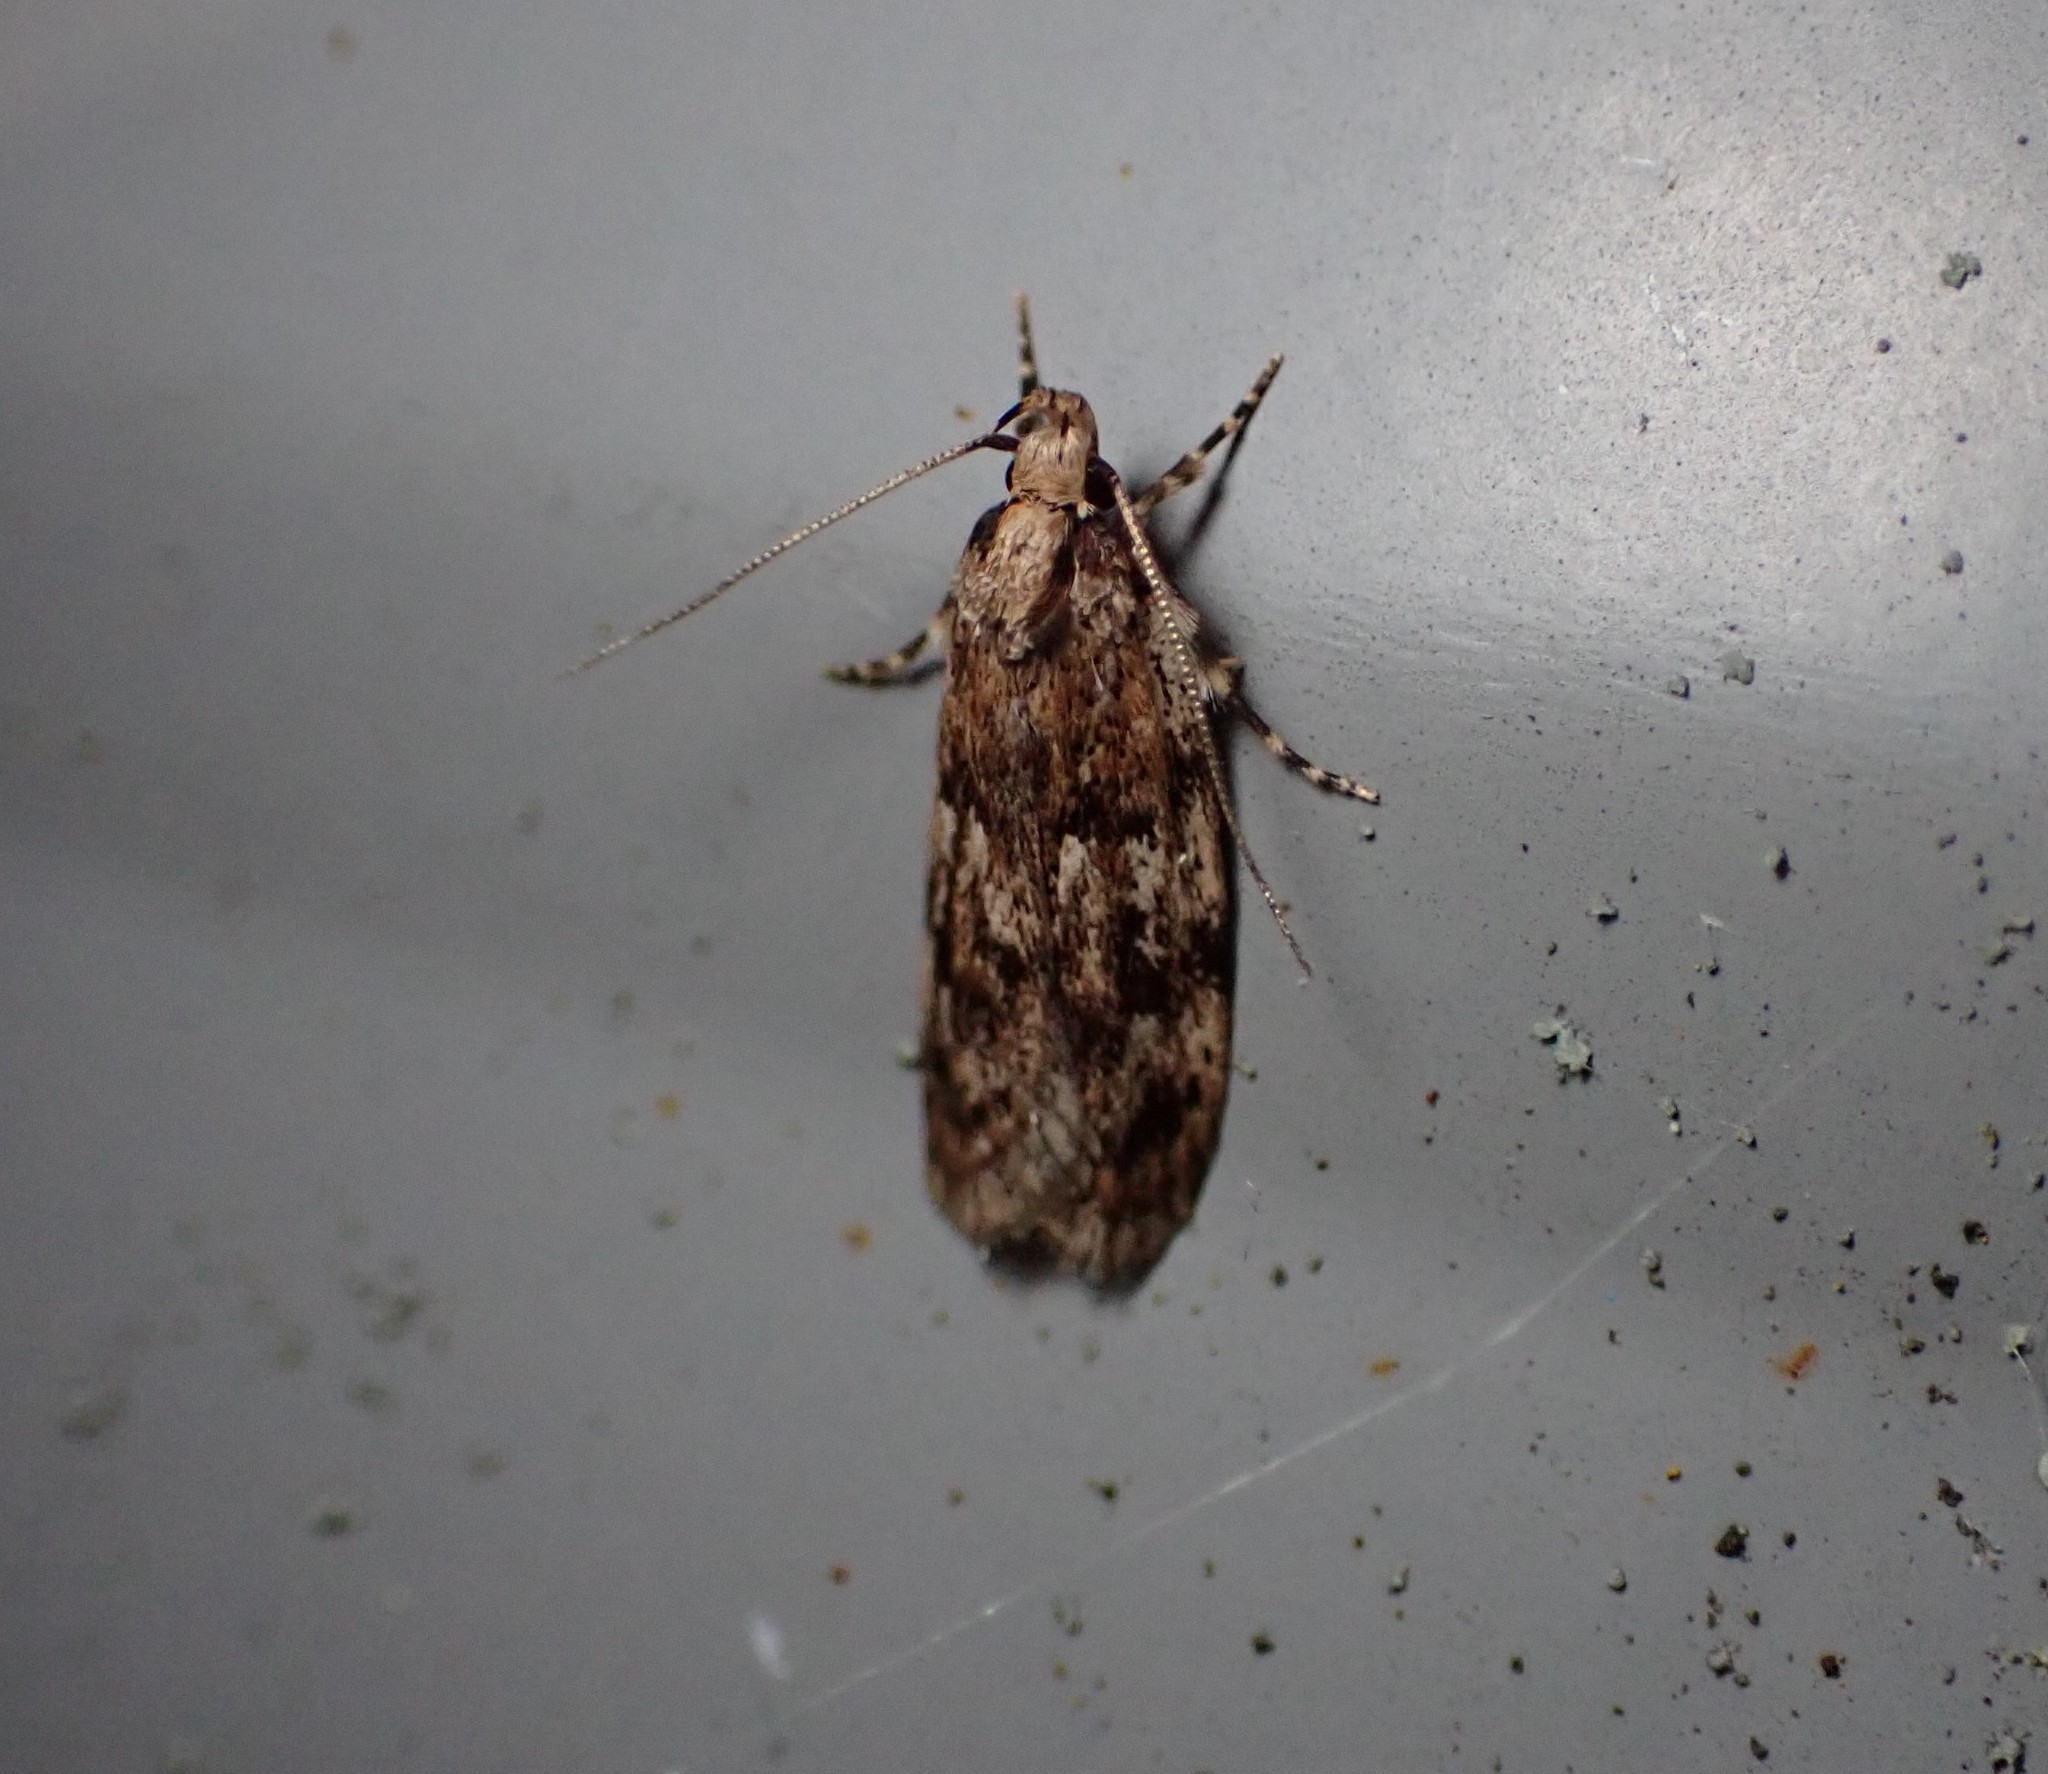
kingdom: Animalia
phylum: Arthropoda
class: Insecta
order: Lepidoptera
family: Oecophoridae
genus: Barea
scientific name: Barea exarcha
